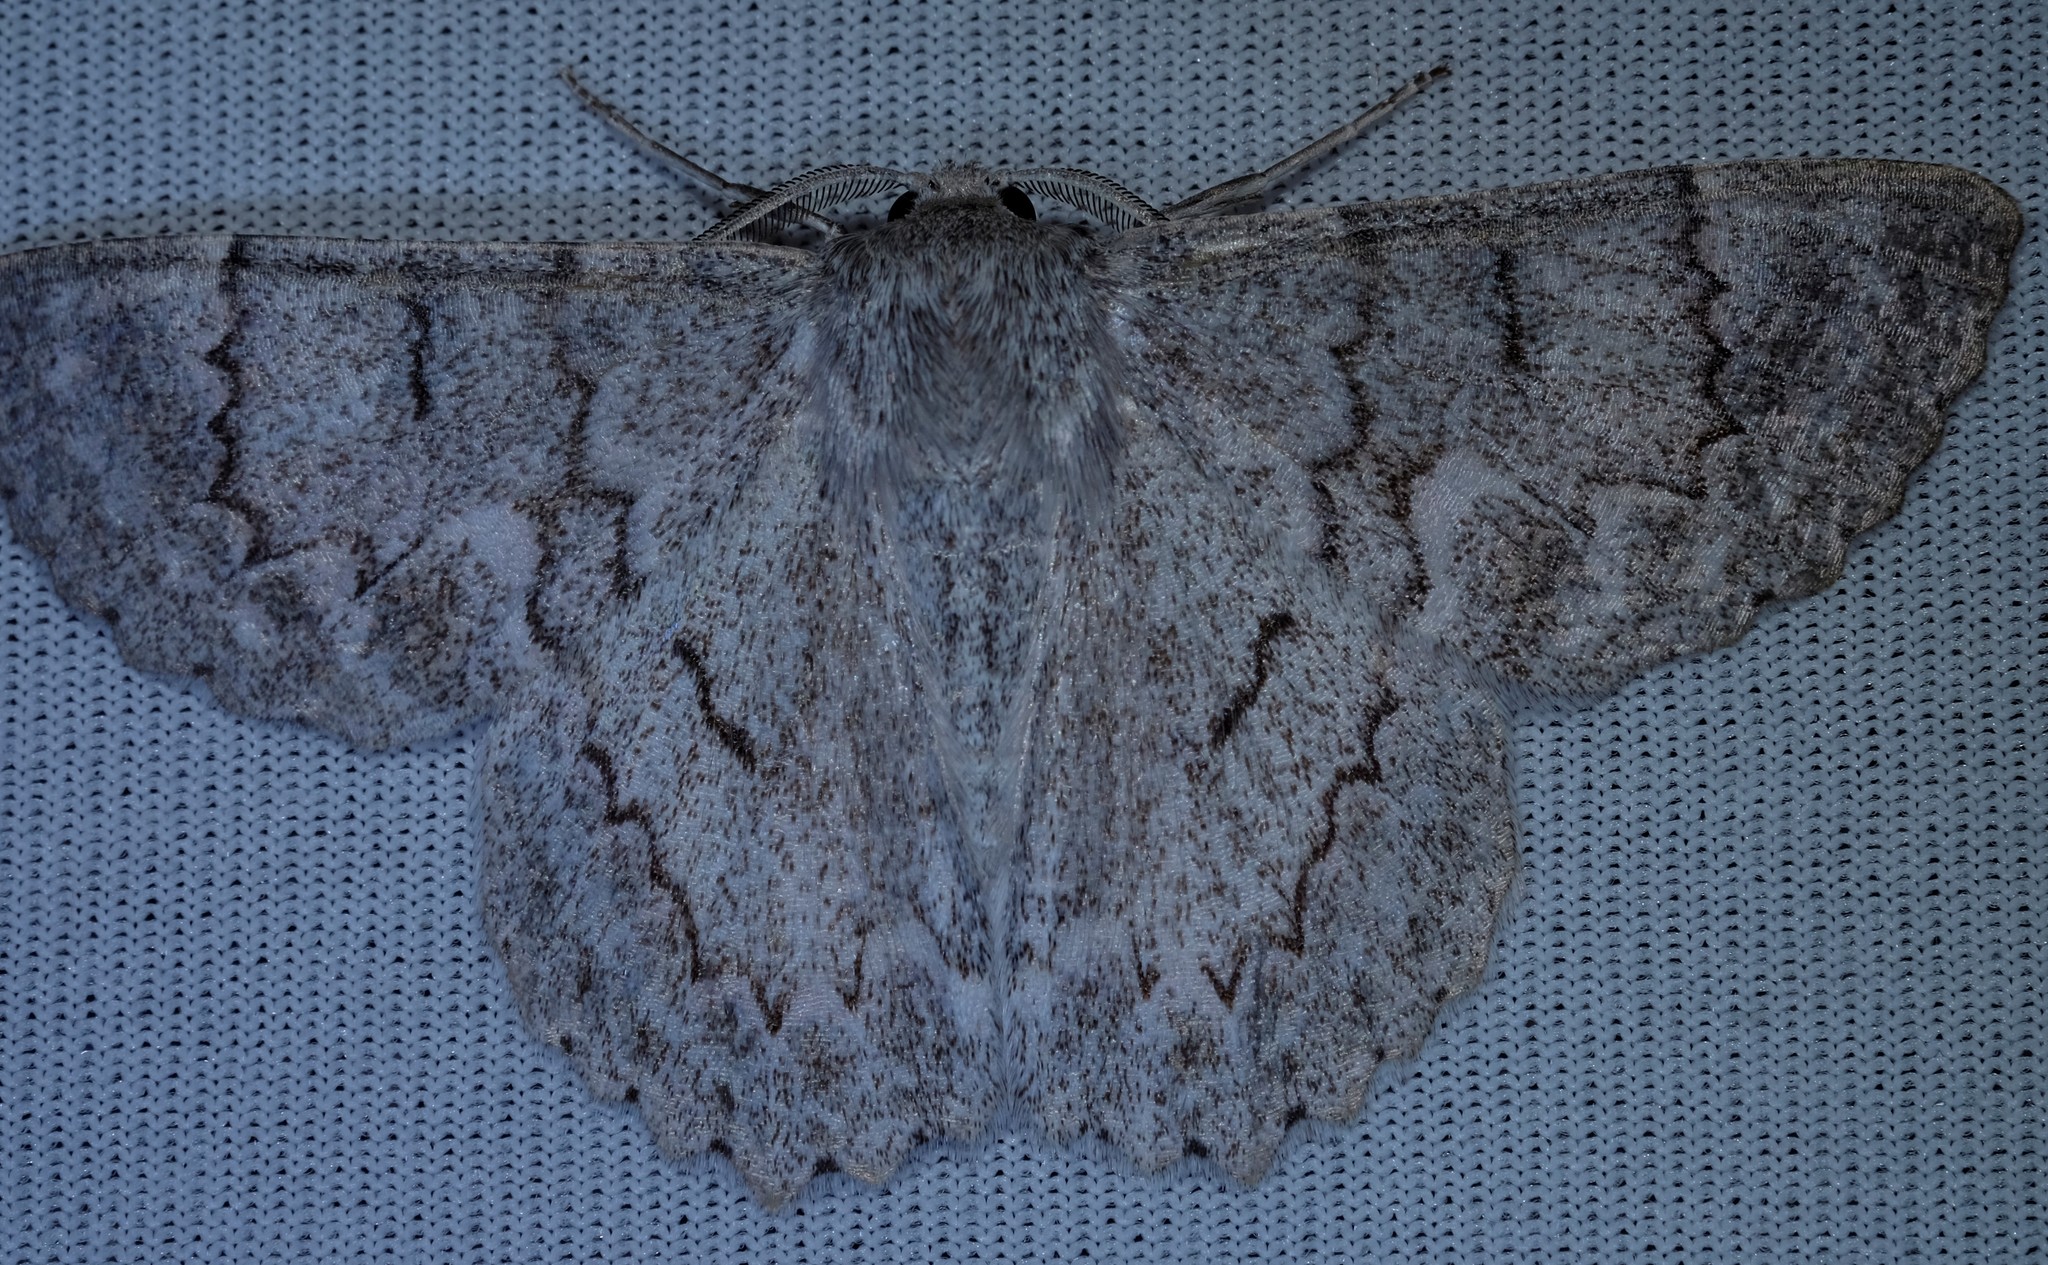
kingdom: Animalia
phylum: Arthropoda
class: Insecta
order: Lepidoptera
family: Geometridae
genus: Crypsiphona
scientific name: Crypsiphona ocultaria
